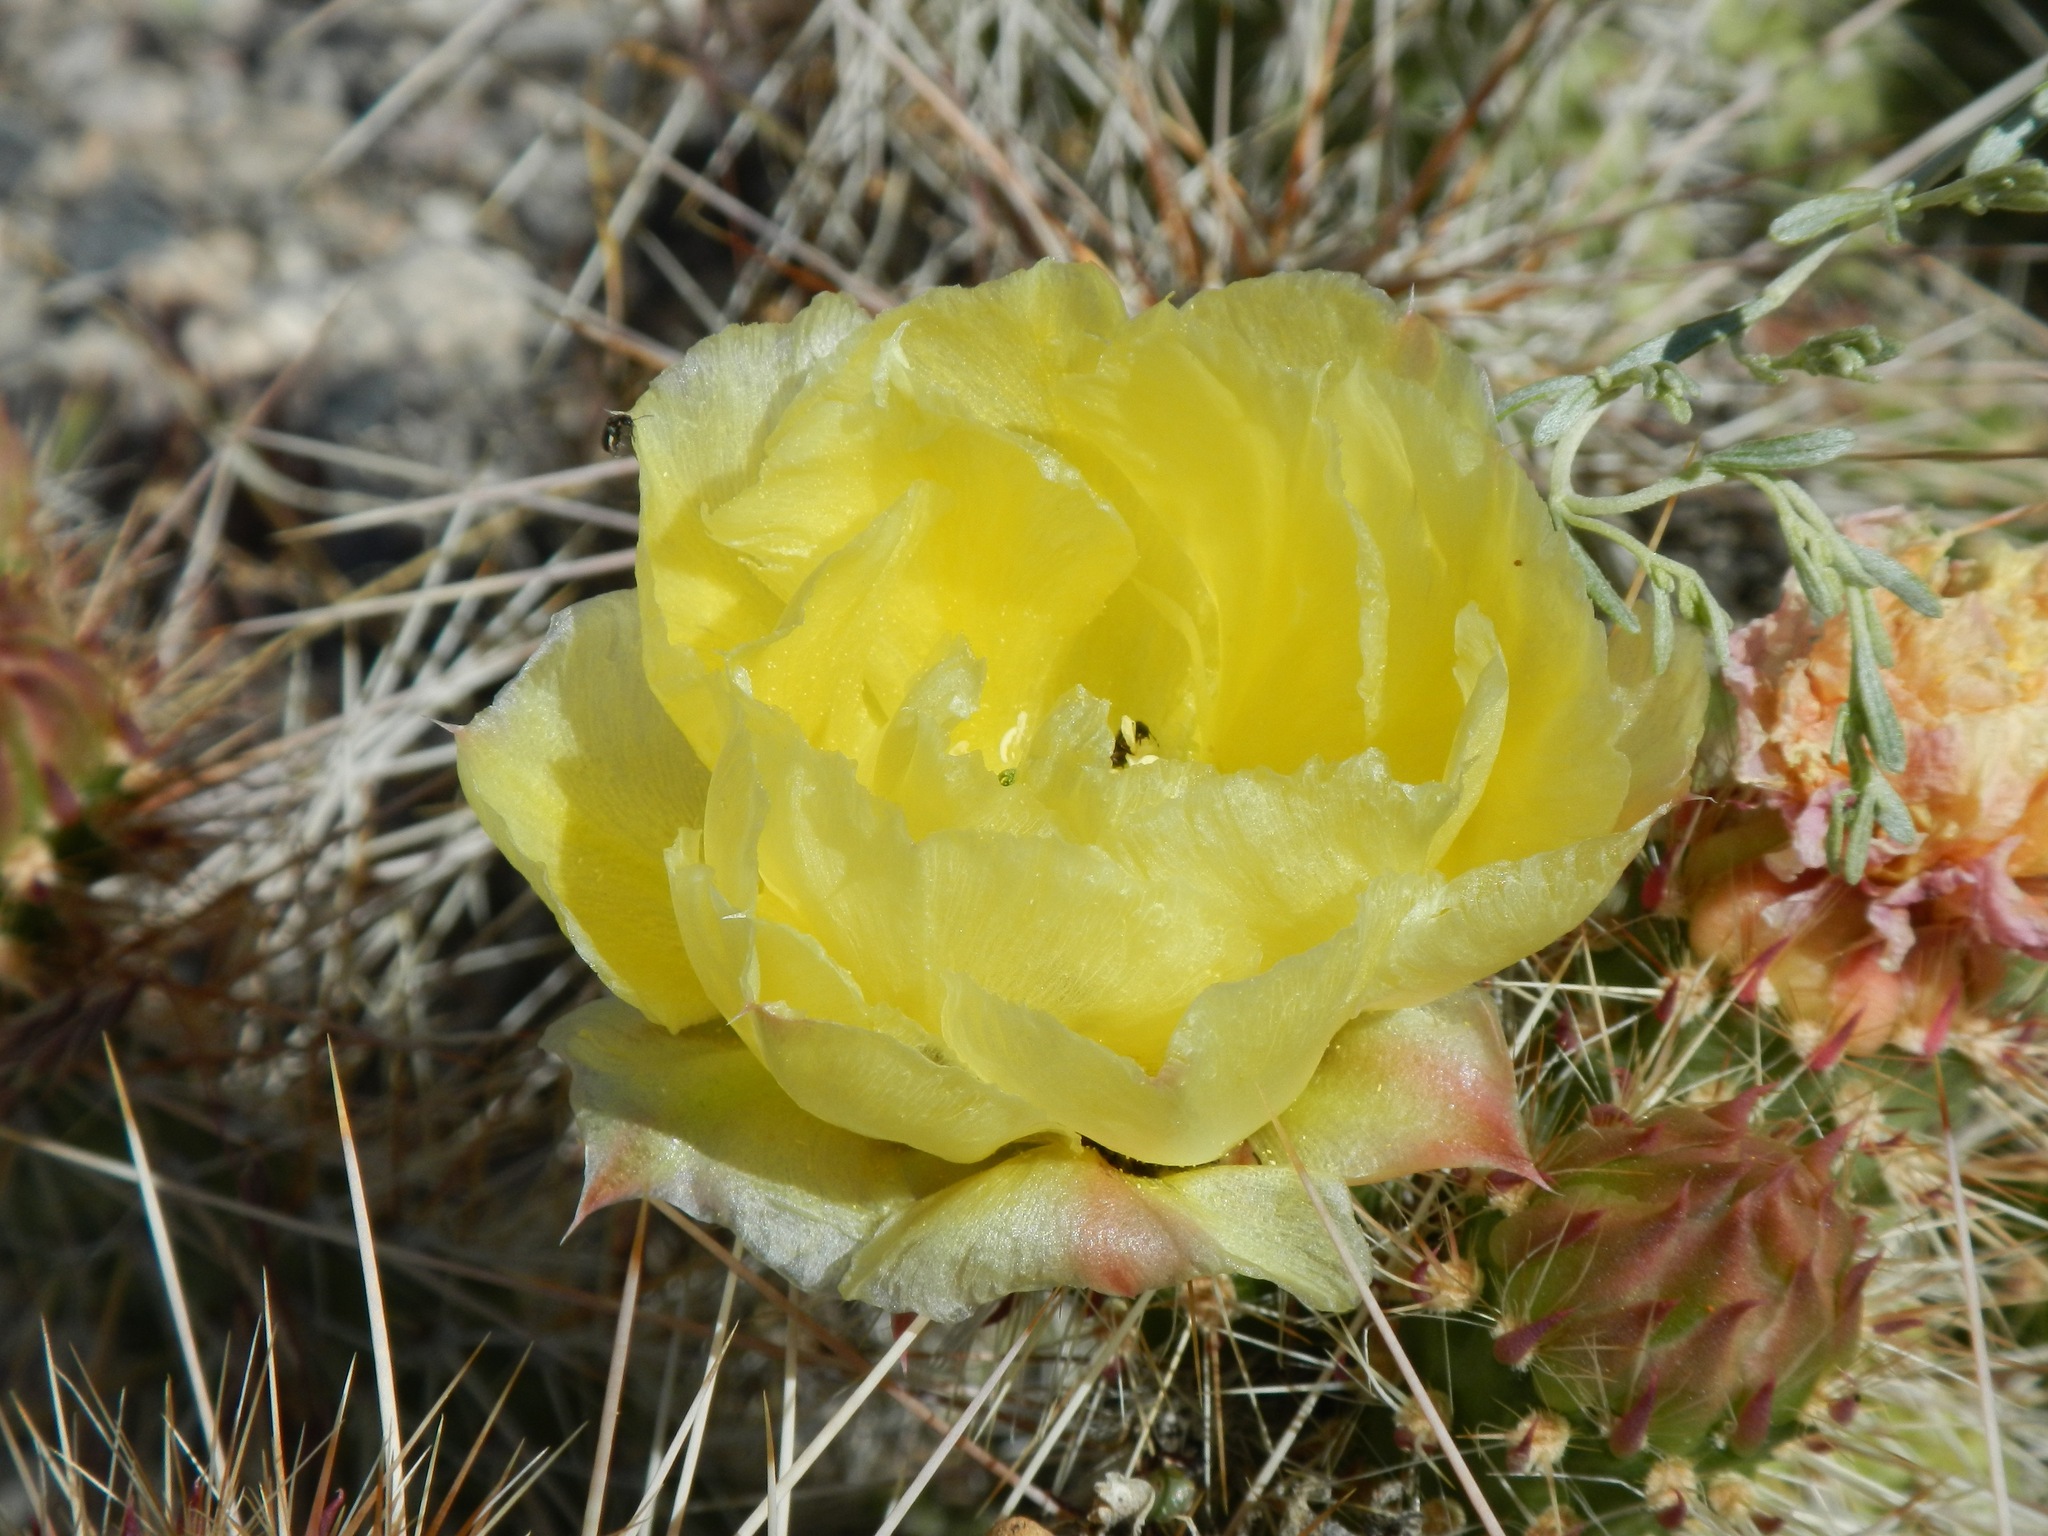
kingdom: Plantae
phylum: Tracheophyta
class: Magnoliopsida
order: Caryophyllales
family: Cactaceae
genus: Opuntia
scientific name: Opuntia polyacantha
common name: Plains prickly-pear
